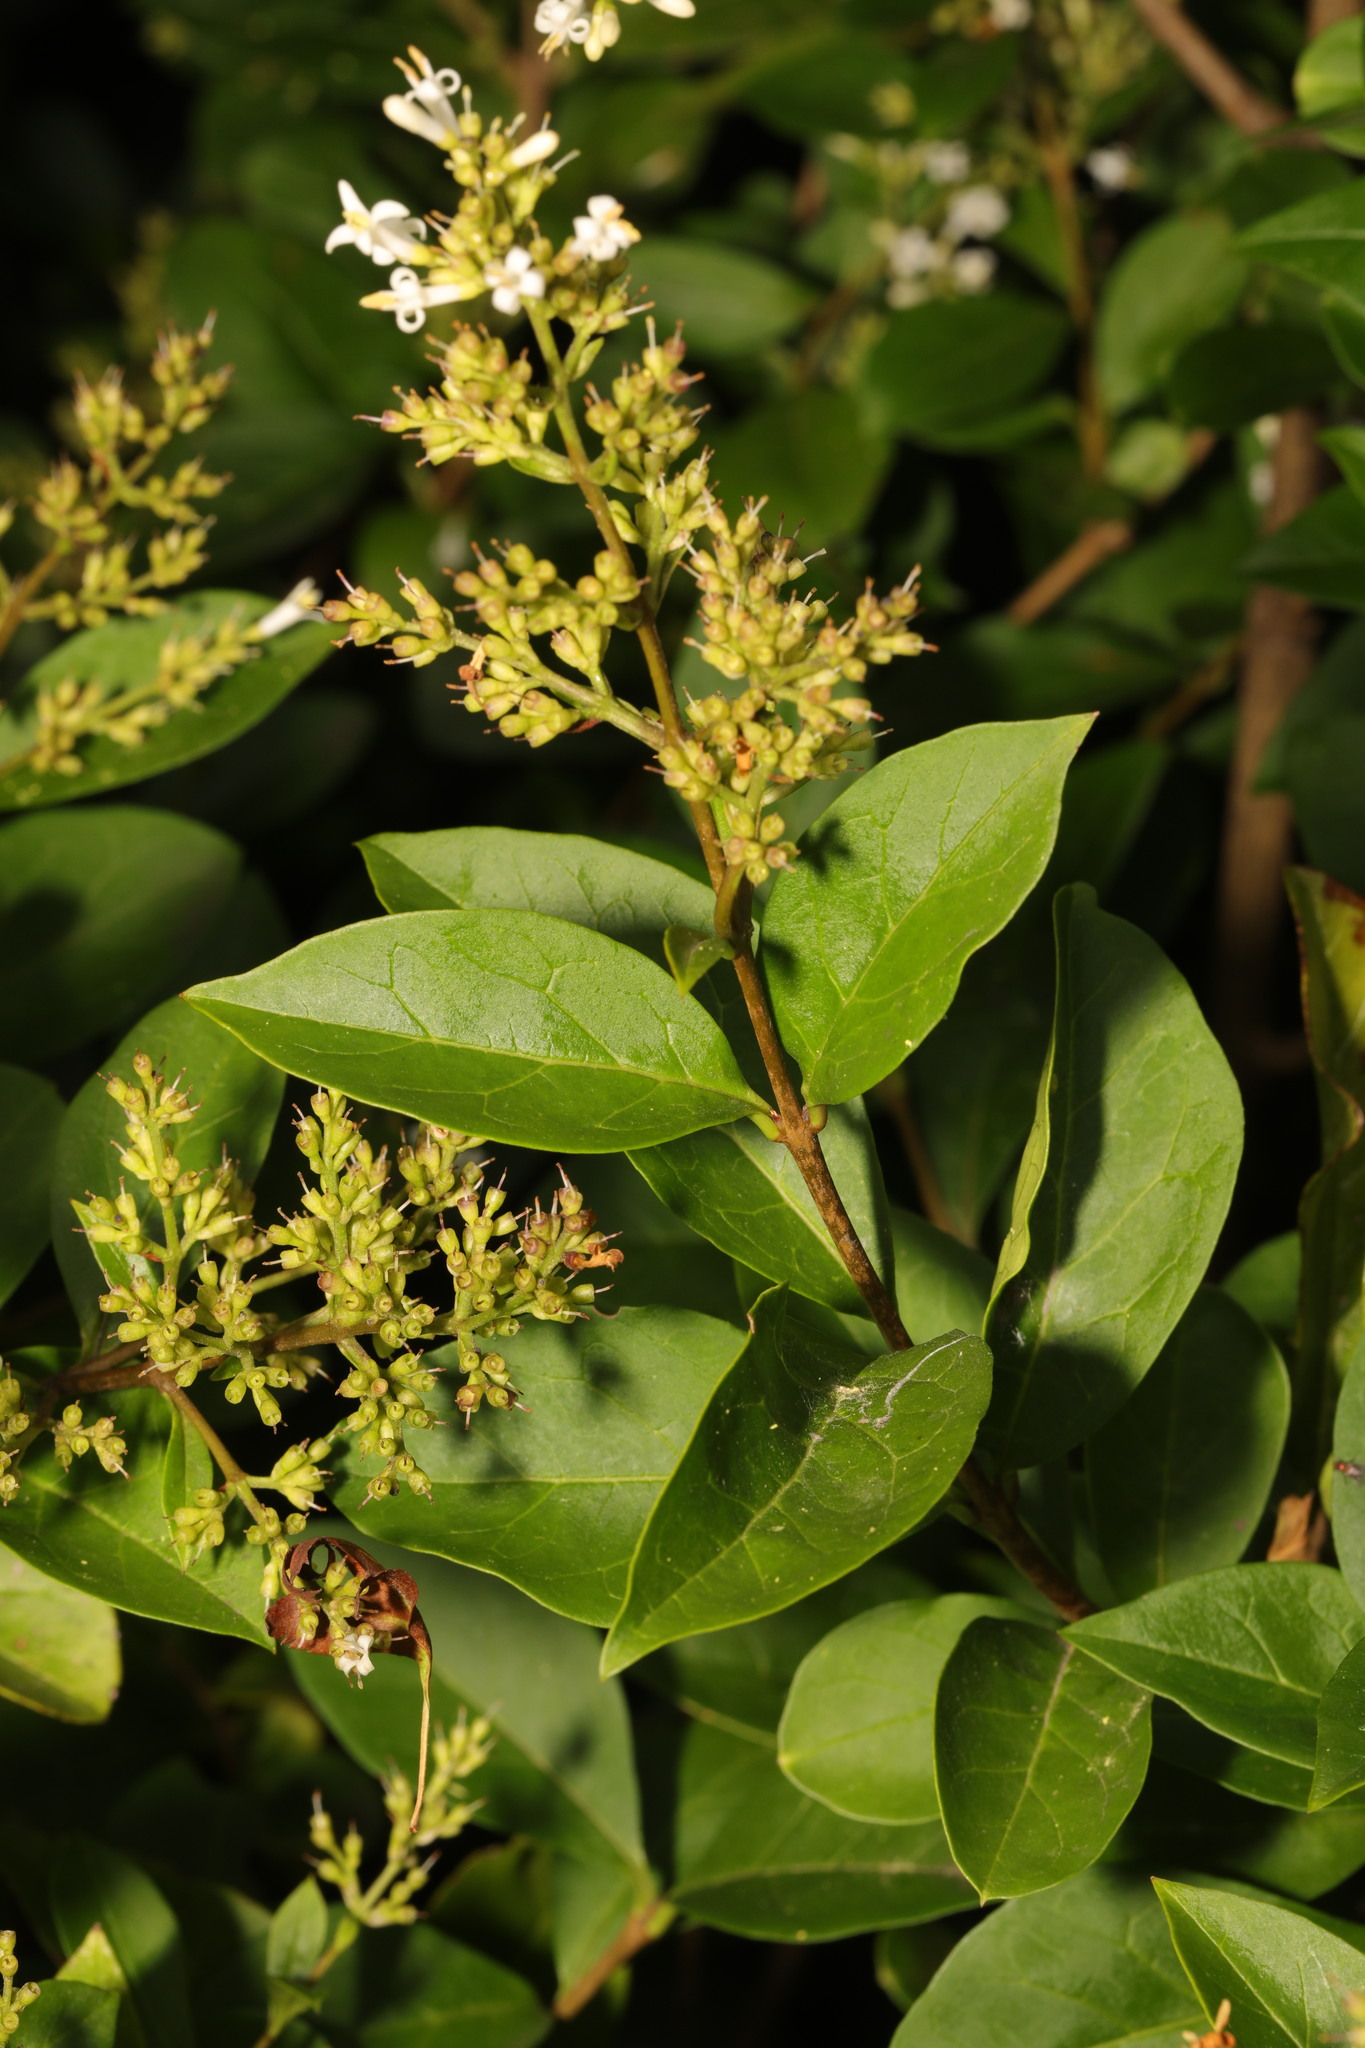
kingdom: Plantae
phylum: Tracheophyta
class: Magnoliopsida
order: Lamiales
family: Oleaceae
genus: Ligustrum
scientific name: Ligustrum ovalifolium
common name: California privet
